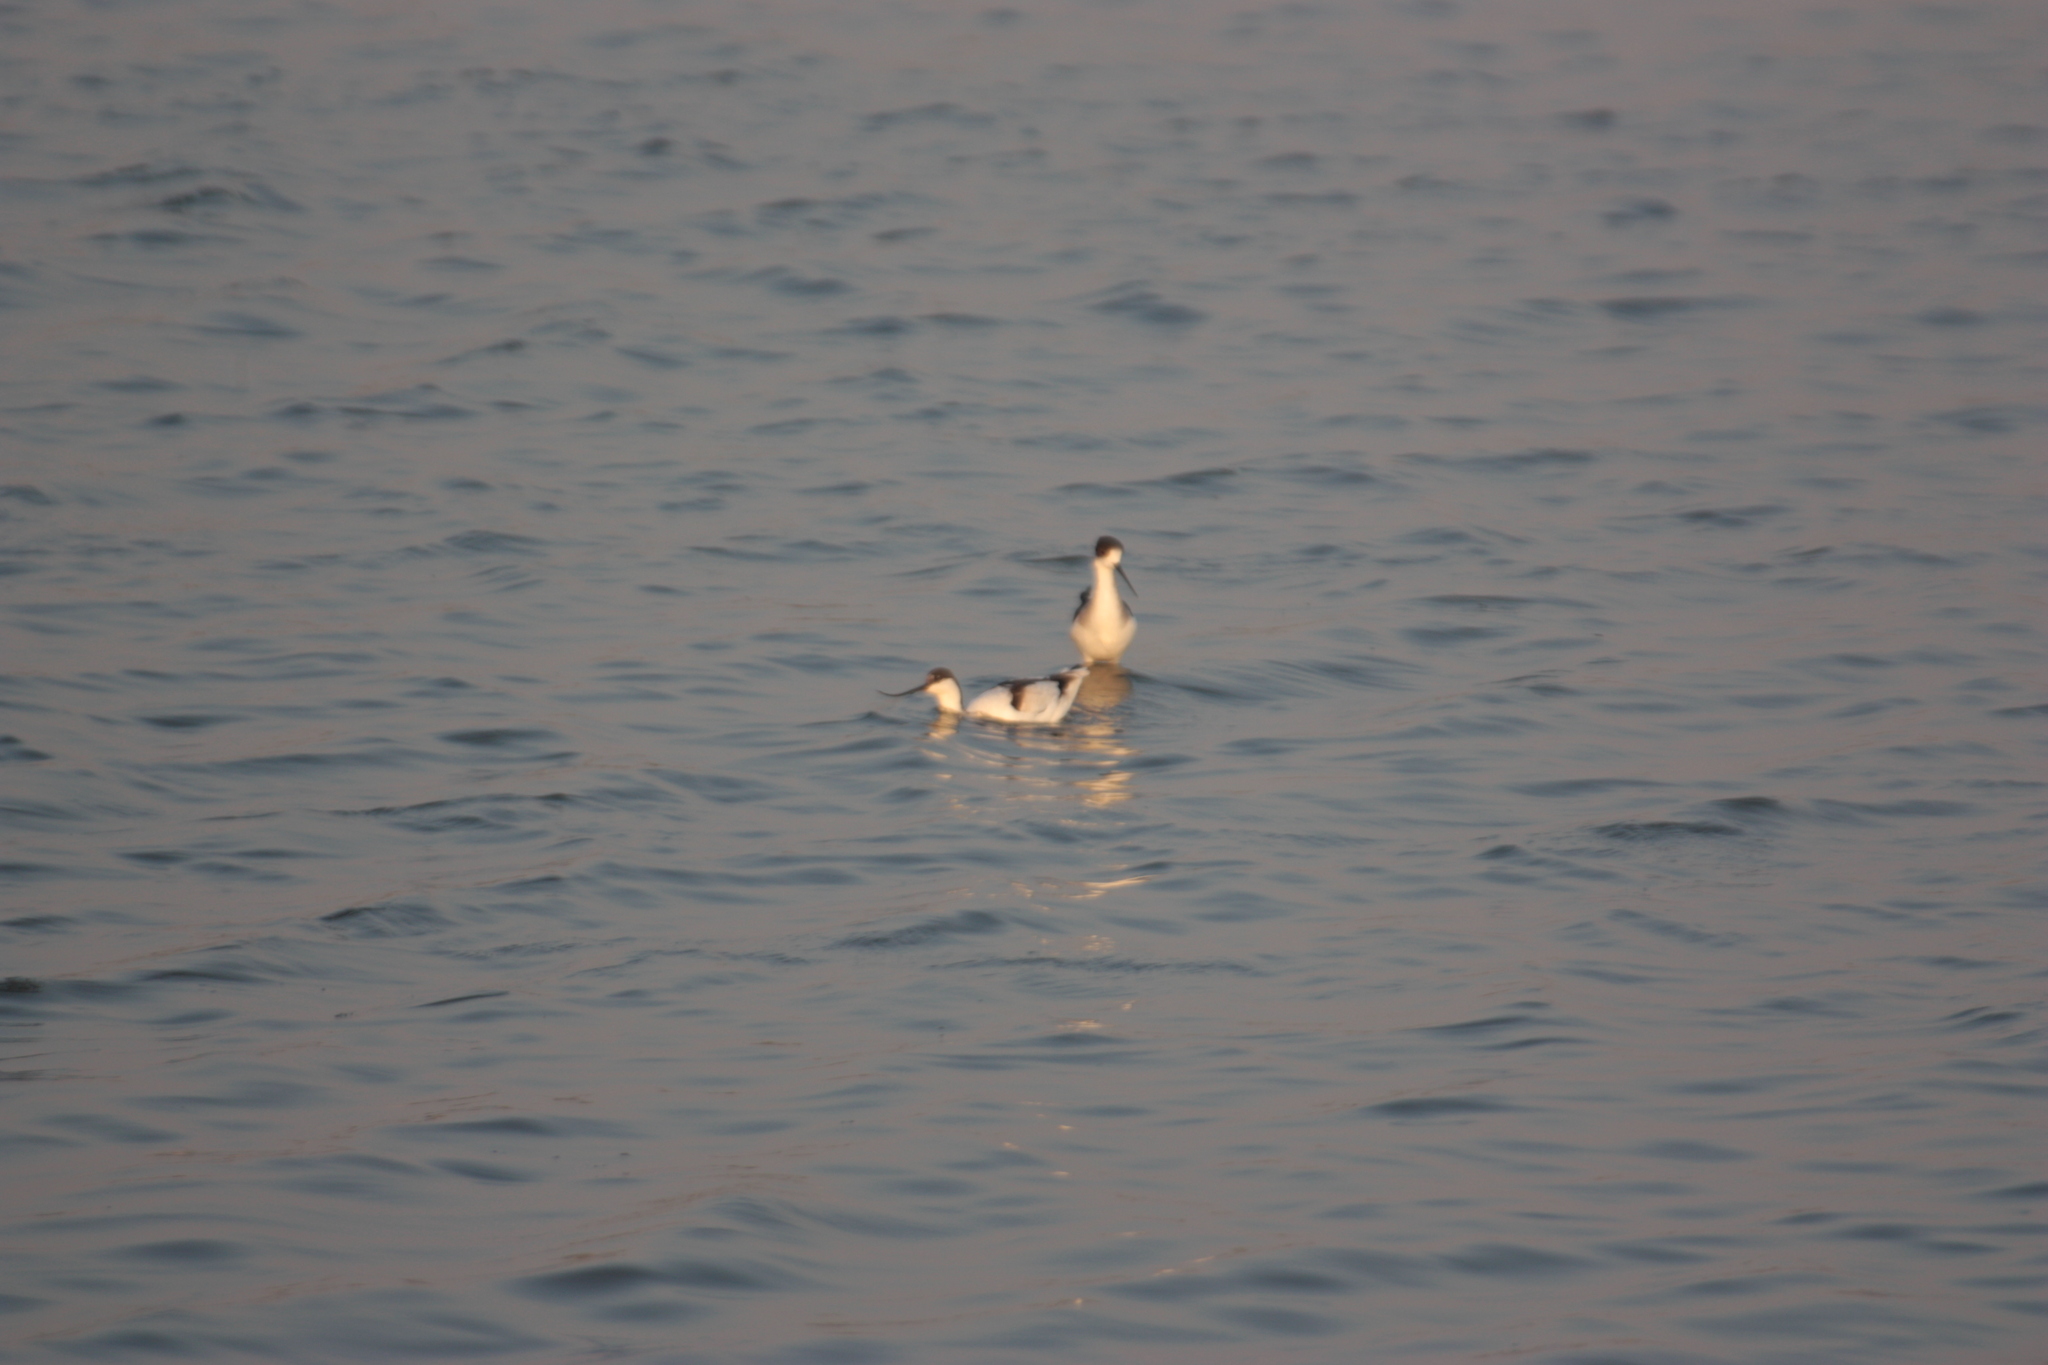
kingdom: Animalia
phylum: Chordata
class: Aves
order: Charadriiformes
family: Recurvirostridae
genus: Recurvirostra
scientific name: Recurvirostra avosetta
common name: Pied avocet
